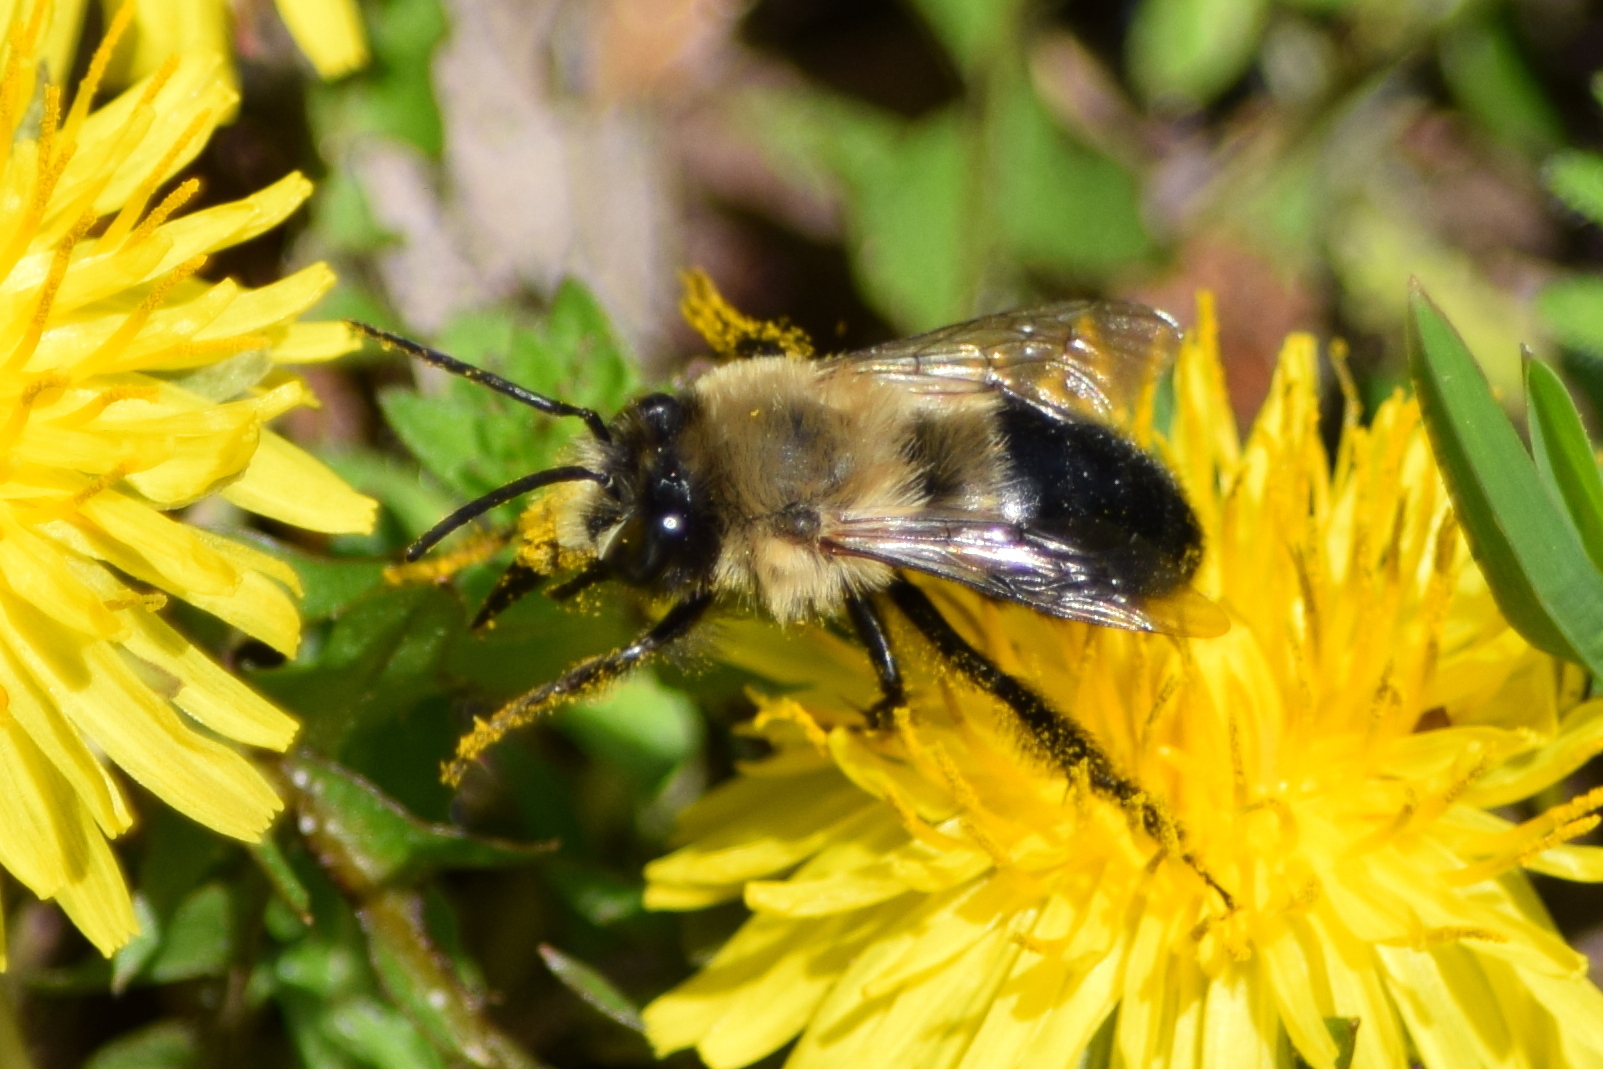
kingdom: Animalia
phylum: Arthropoda
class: Insecta
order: Hymenoptera
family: Apidae
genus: Habropoda
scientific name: Habropoda laboriosa
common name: Southeastern blueberry bee
